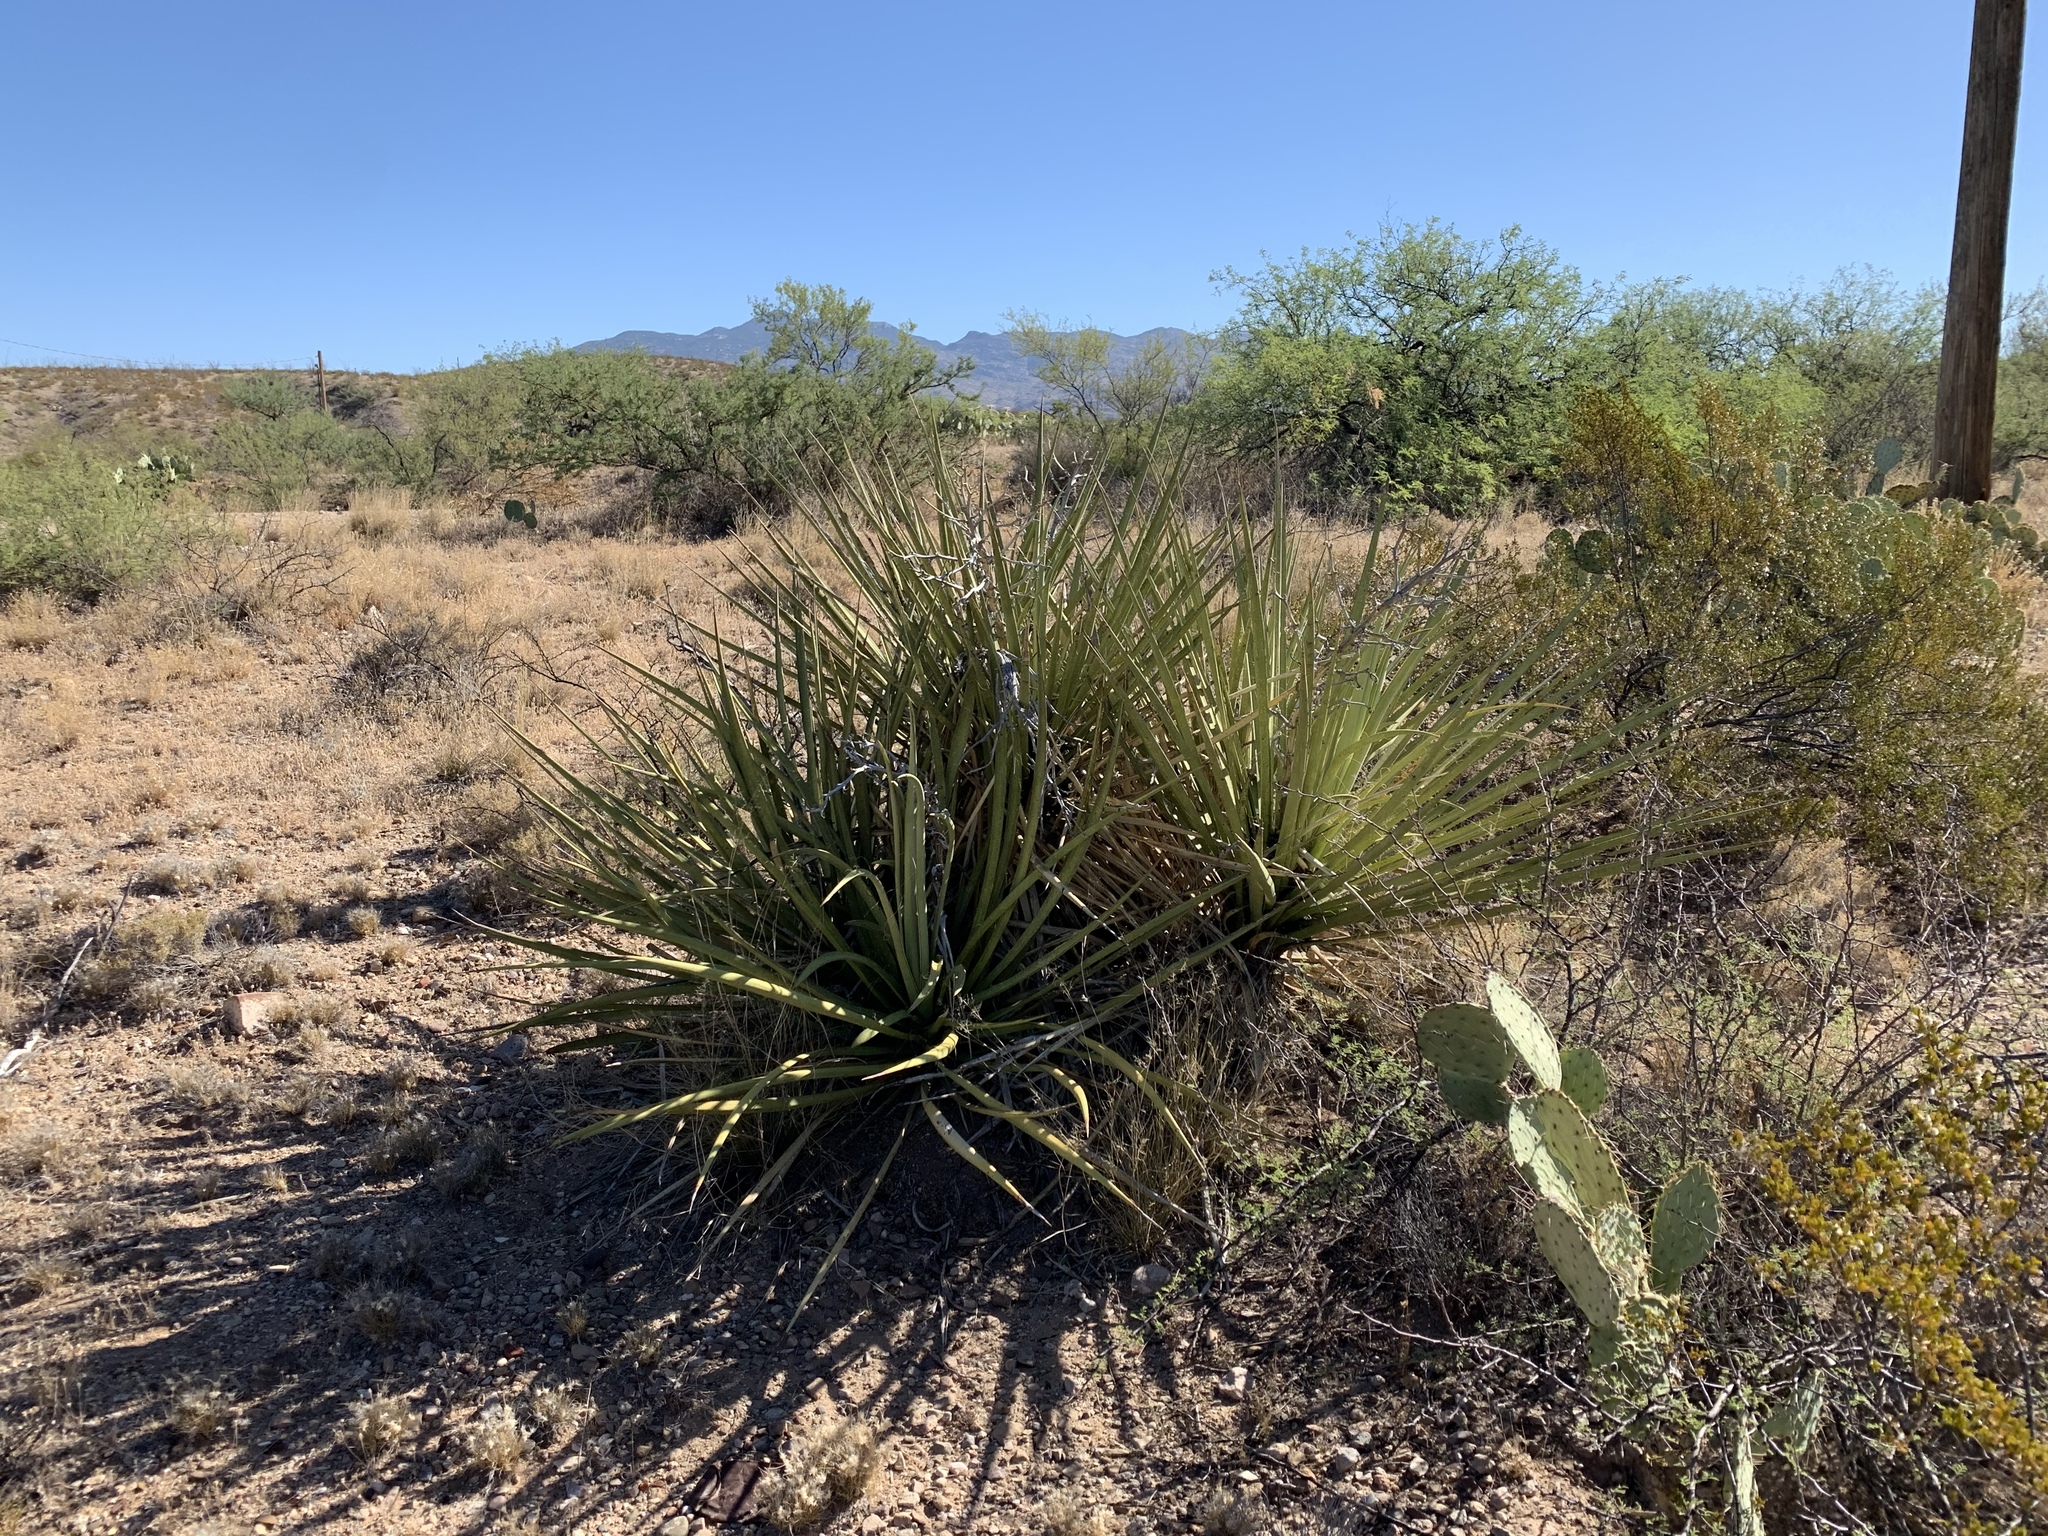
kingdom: Plantae
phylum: Tracheophyta
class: Liliopsida
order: Asparagales
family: Asparagaceae
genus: Yucca
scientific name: Yucca baccata
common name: Banana yucca
